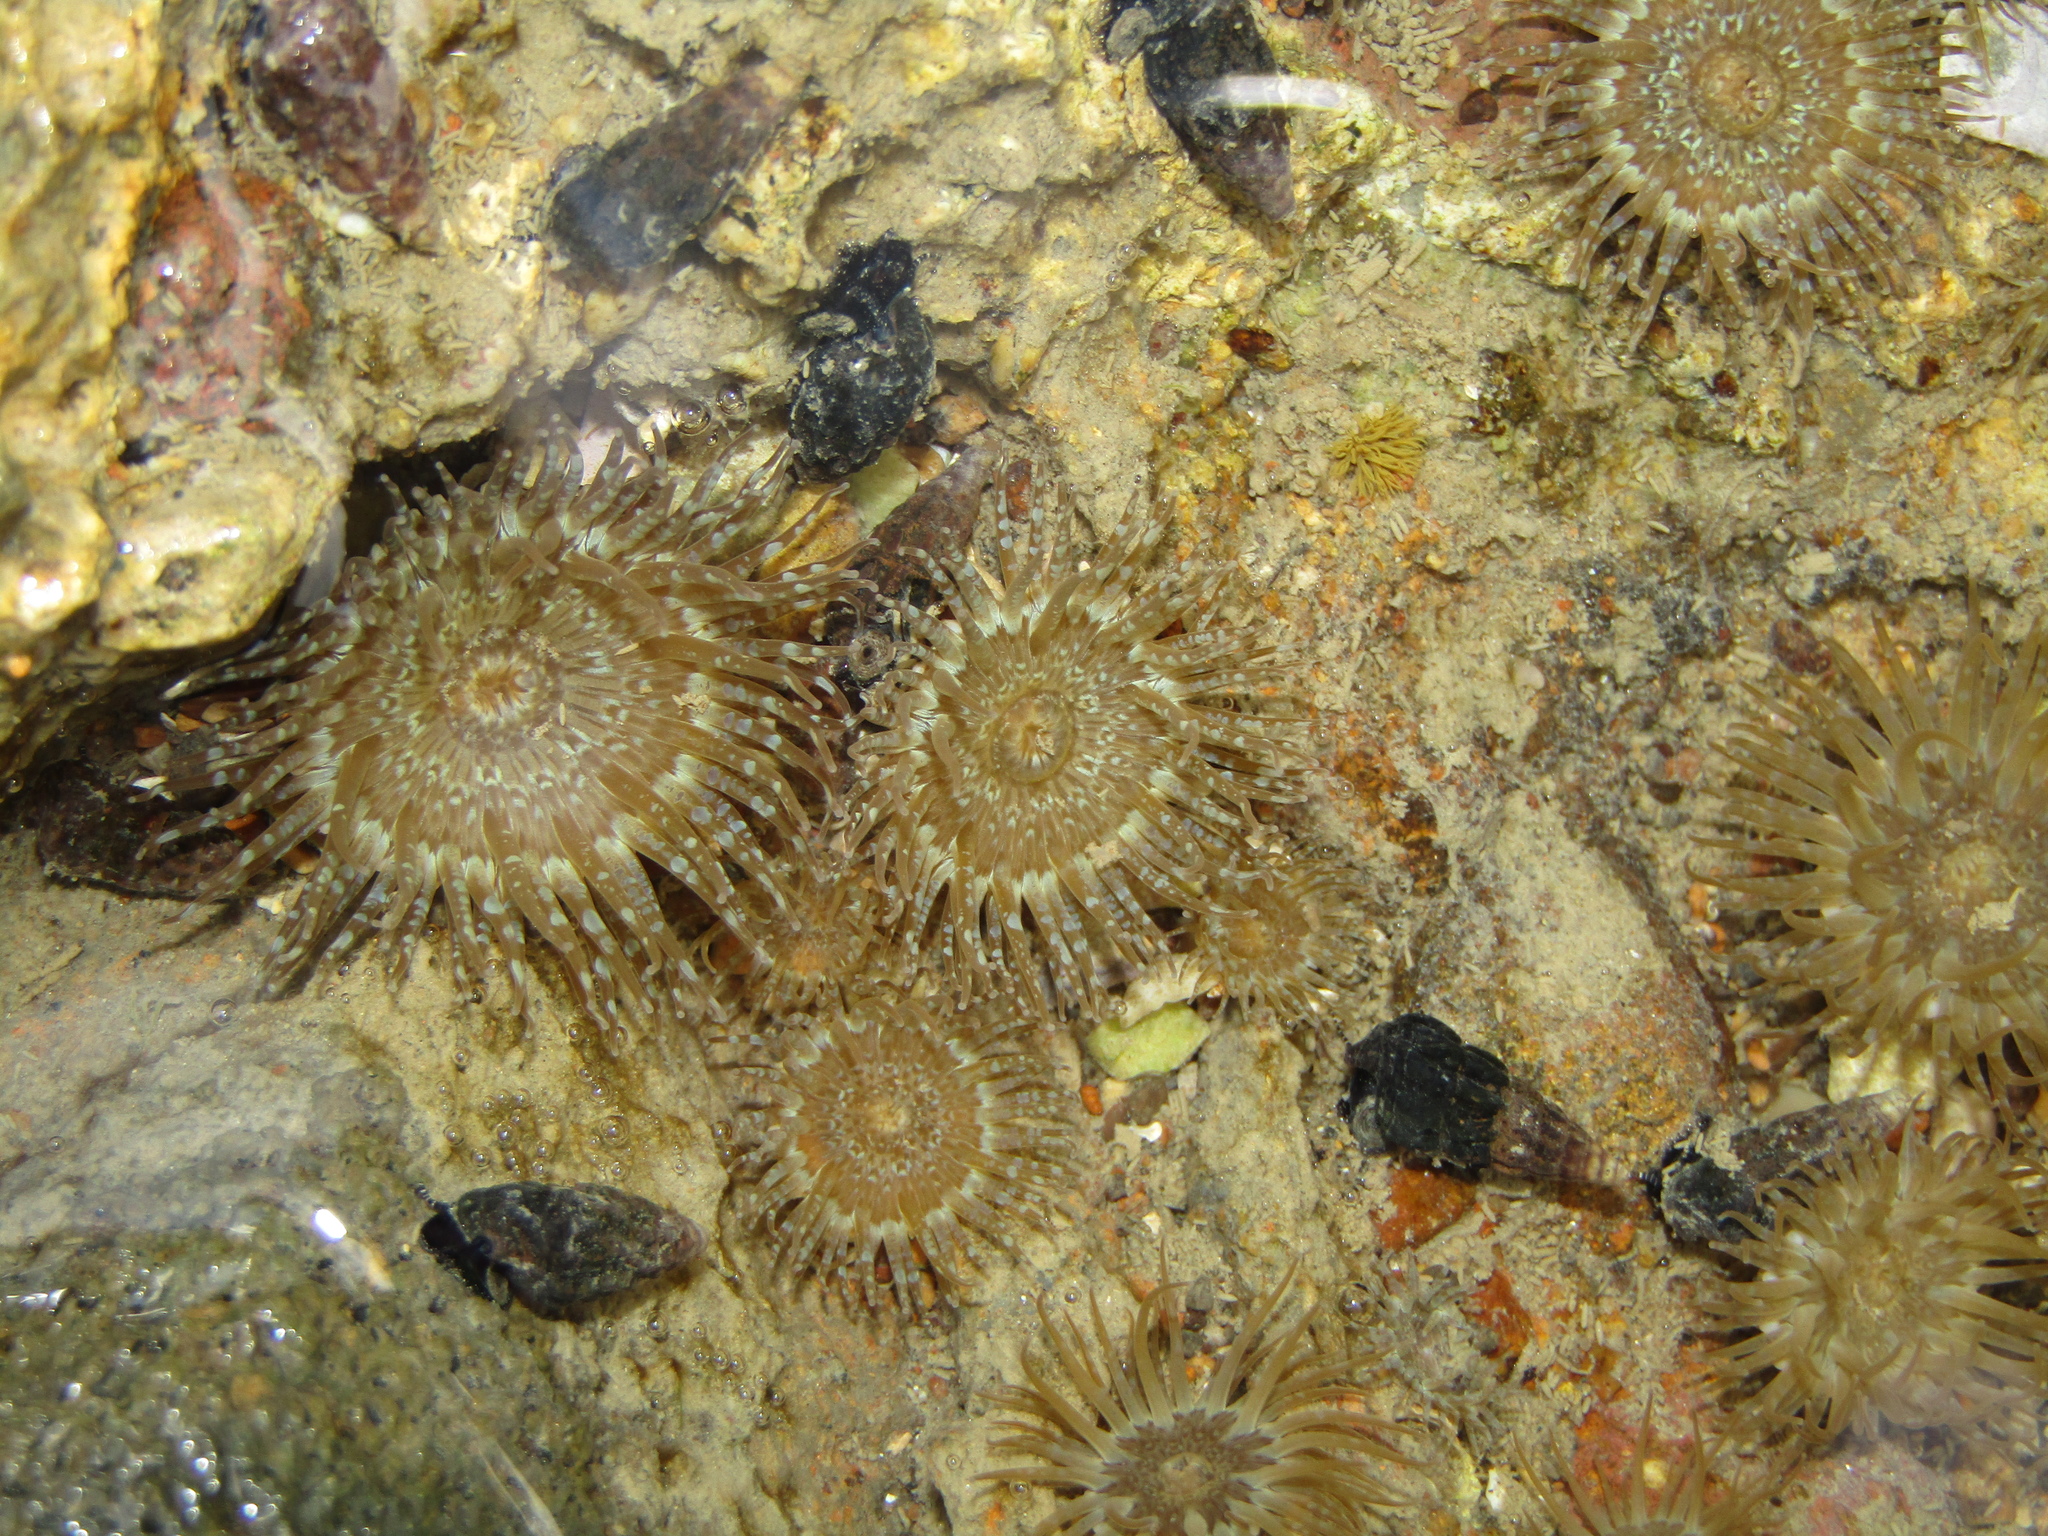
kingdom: Animalia
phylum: Cnidaria
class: Anthozoa
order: Actiniaria
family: Actiniidae
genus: Anthopleura
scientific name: Anthopleura hermaphroditica
